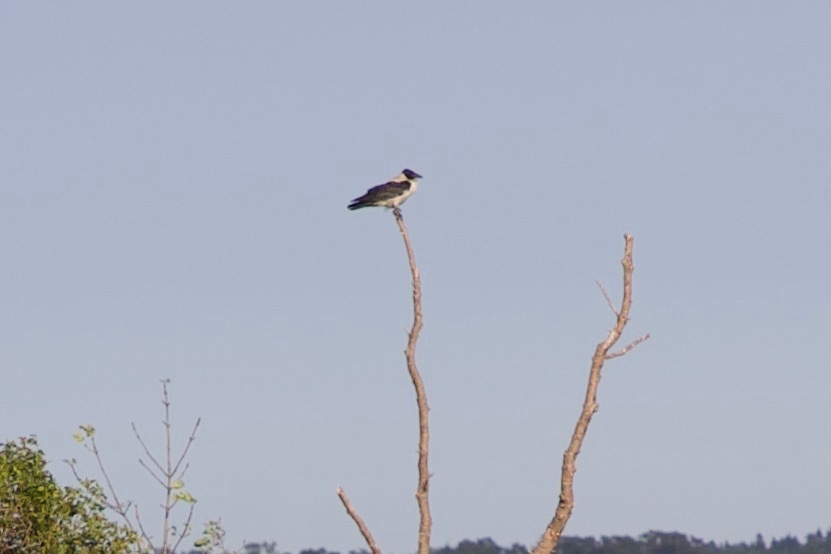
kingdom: Animalia
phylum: Chordata
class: Aves
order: Passeriformes
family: Corvidae
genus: Corvus
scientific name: Corvus cornix
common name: Hooded crow
